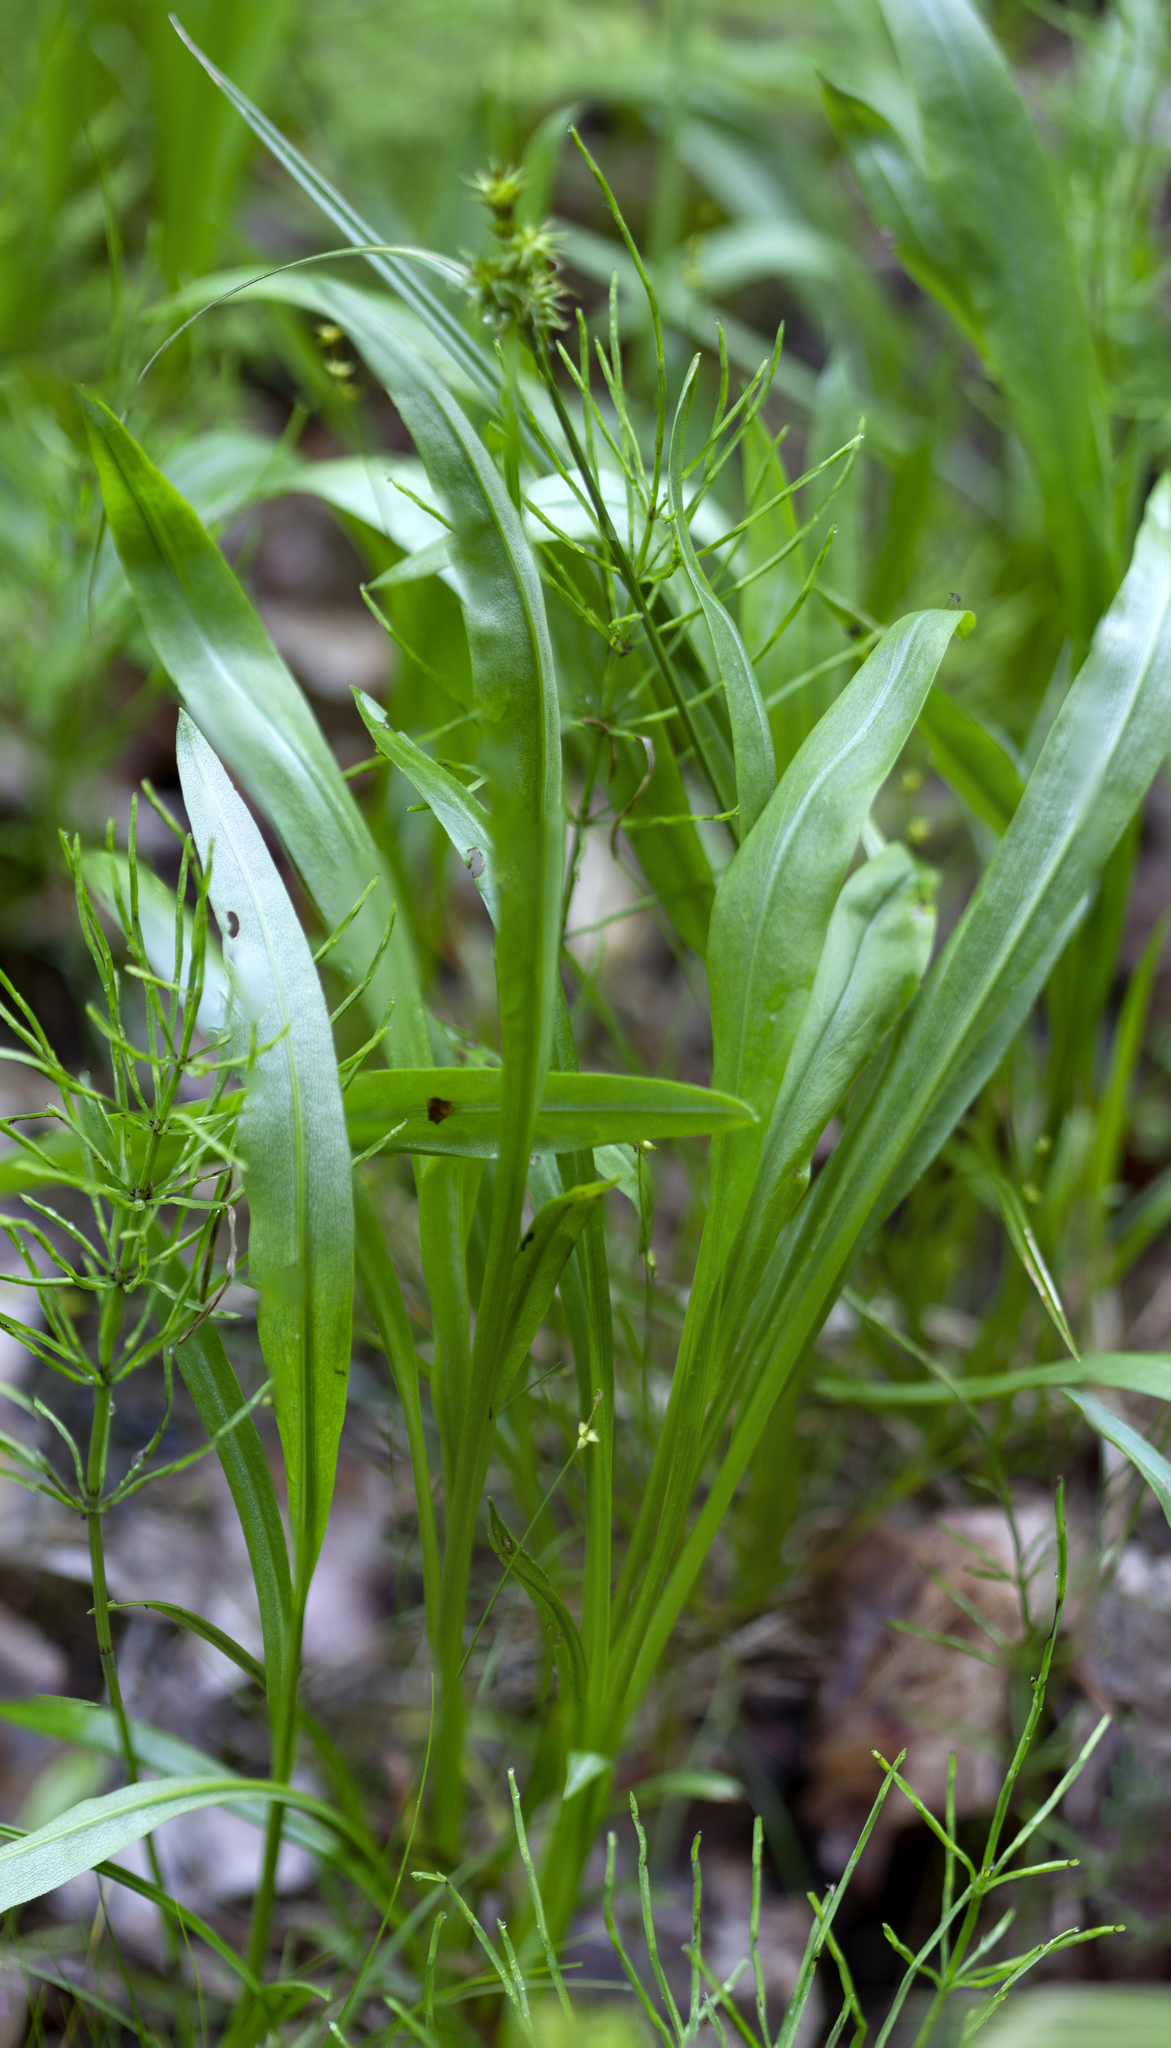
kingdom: Plantae
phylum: Tracheophyta
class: Magnoliopsida
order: Asterales
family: Asteraceae
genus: Solidago
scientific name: Solidago ohioensis
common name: Ohio goldenrod
